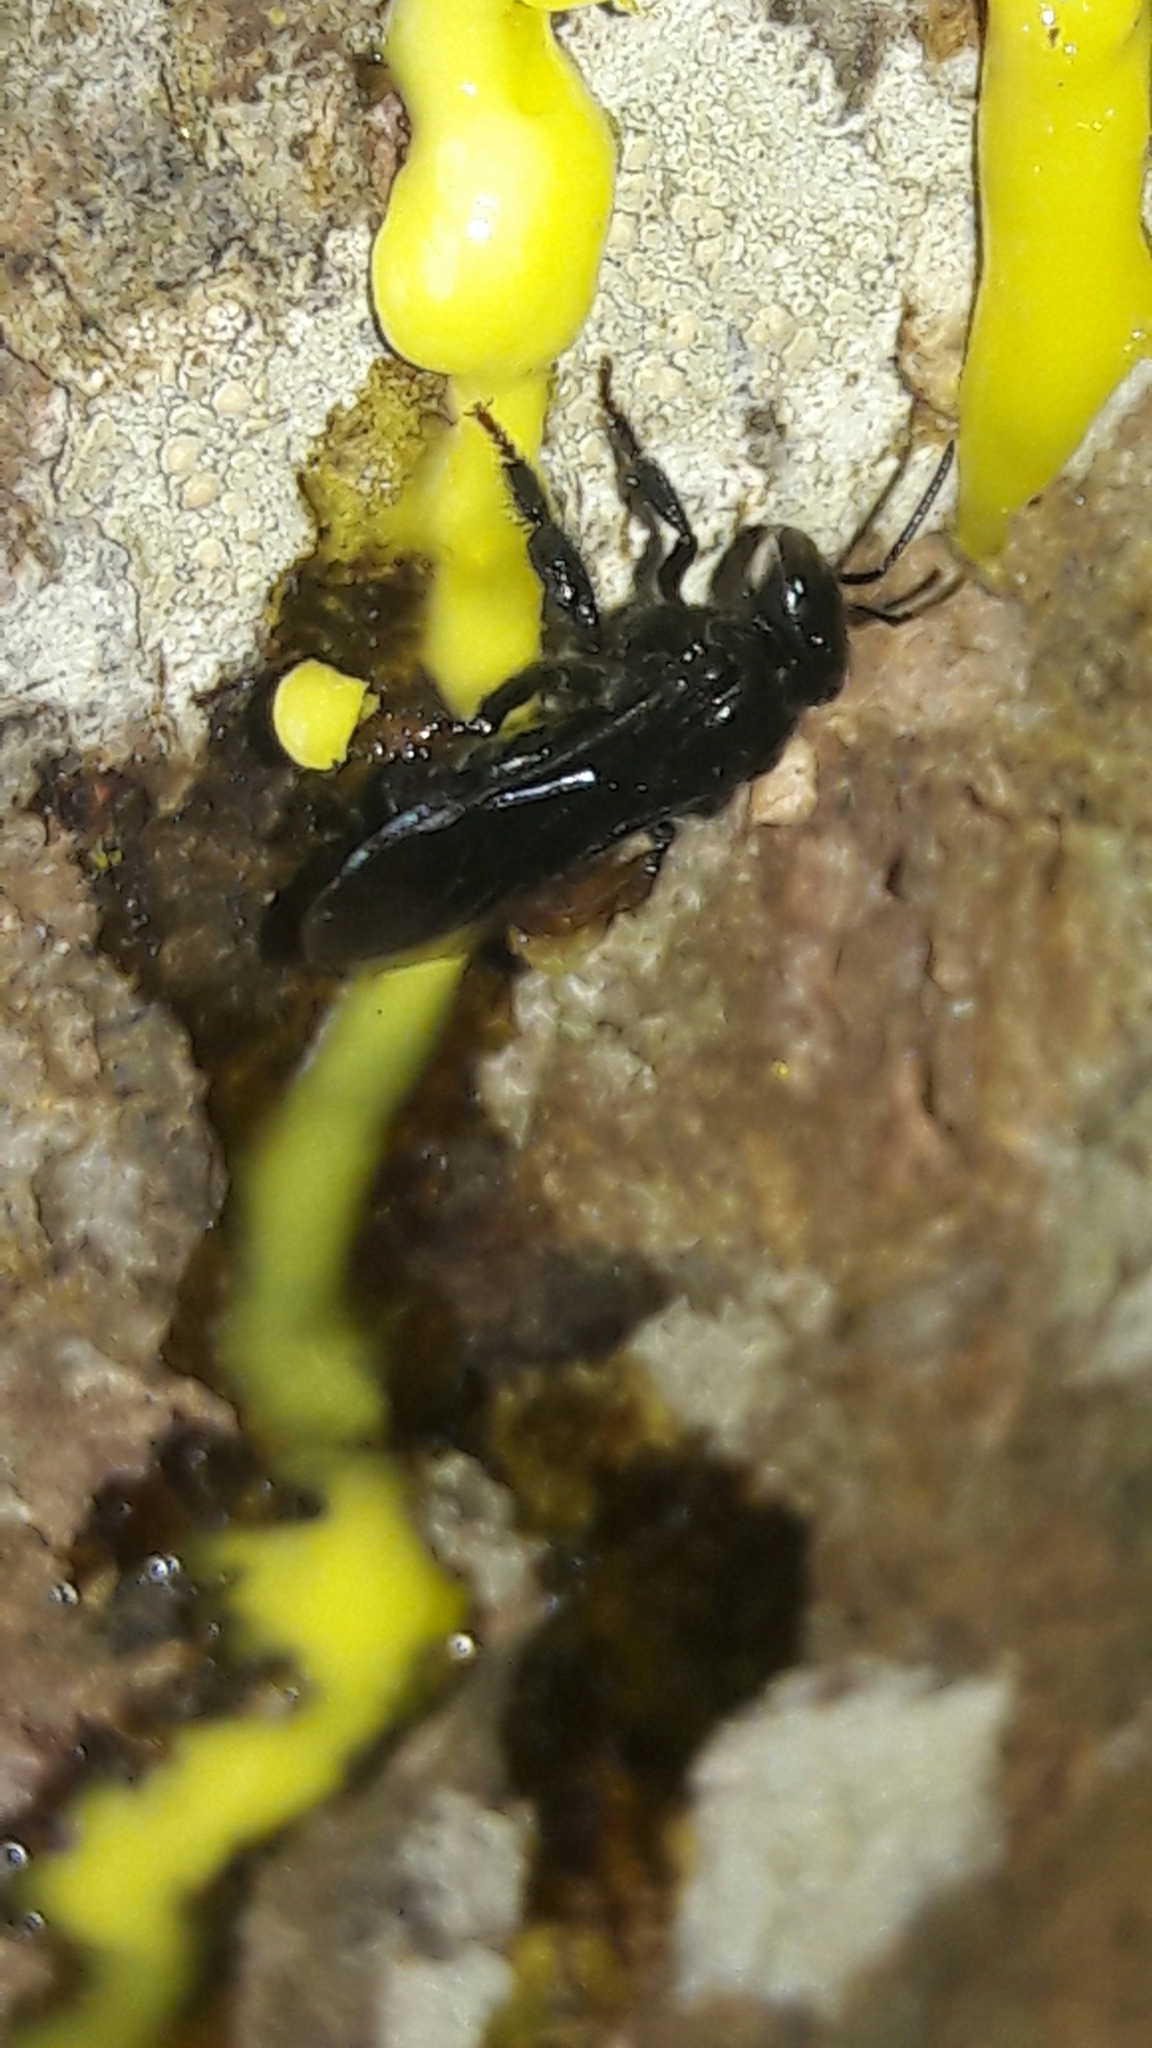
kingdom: Animalia
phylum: Arthropoda
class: Insecta
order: Hymenoptera
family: Apidae
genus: Trigona
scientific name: Trigona spinipes
